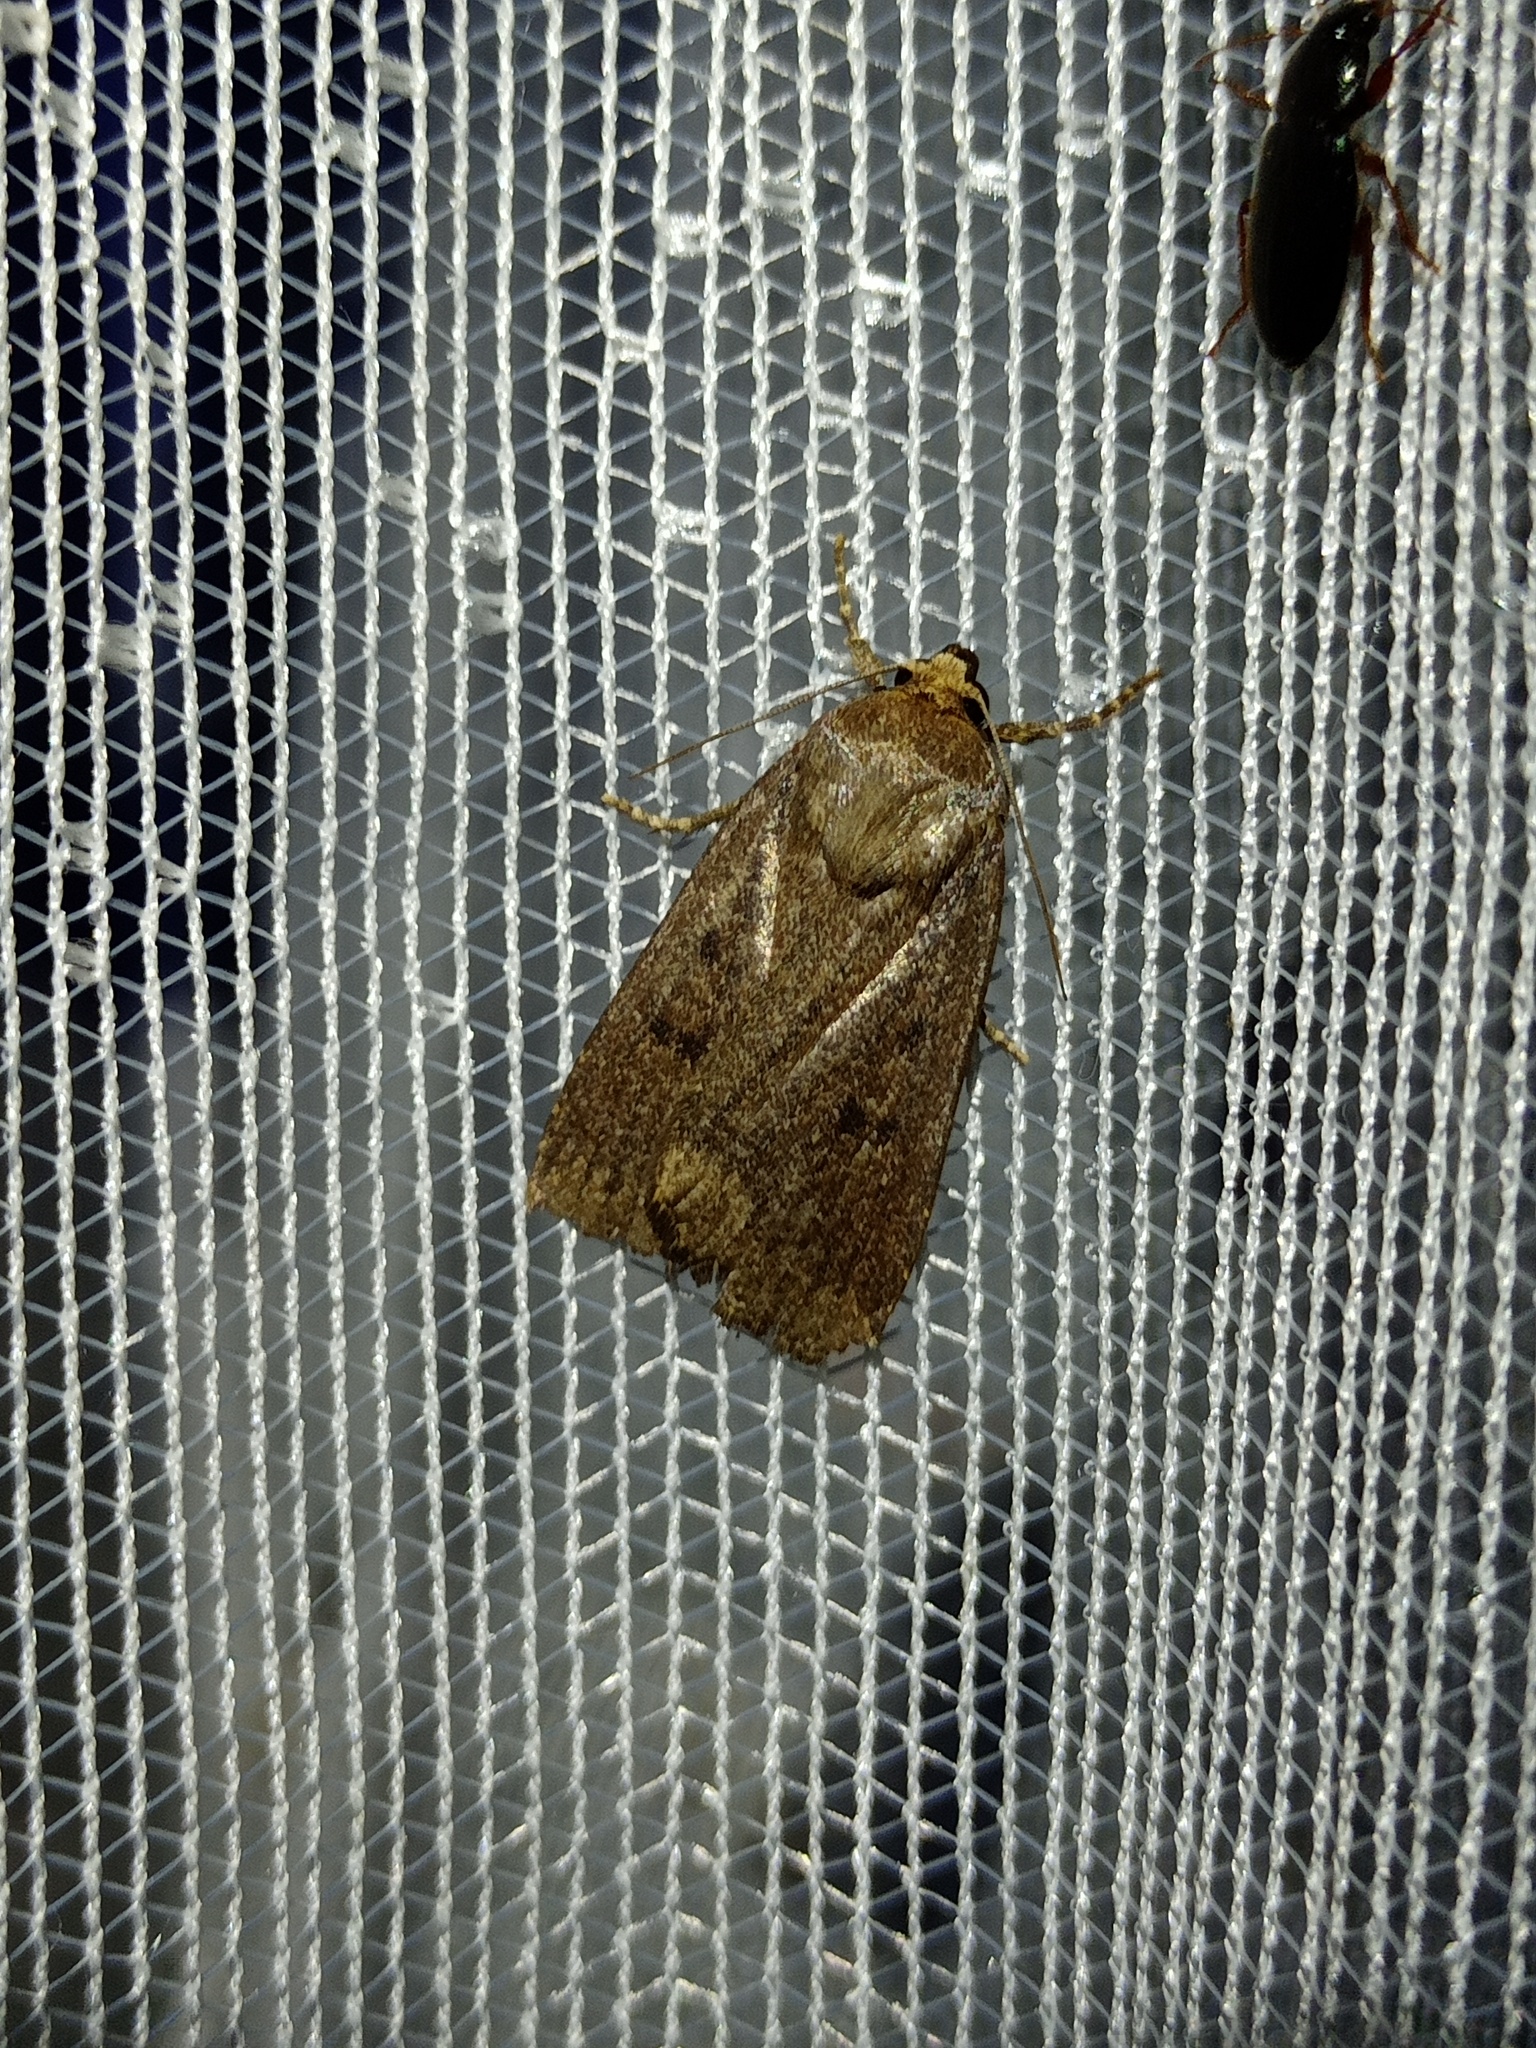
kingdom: Animalia
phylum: Arthropoda
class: Insecta
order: Lepidoptera
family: Noctuidae
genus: Amphipyra
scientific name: Amphipyra tragopoginis
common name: Mouse moth
